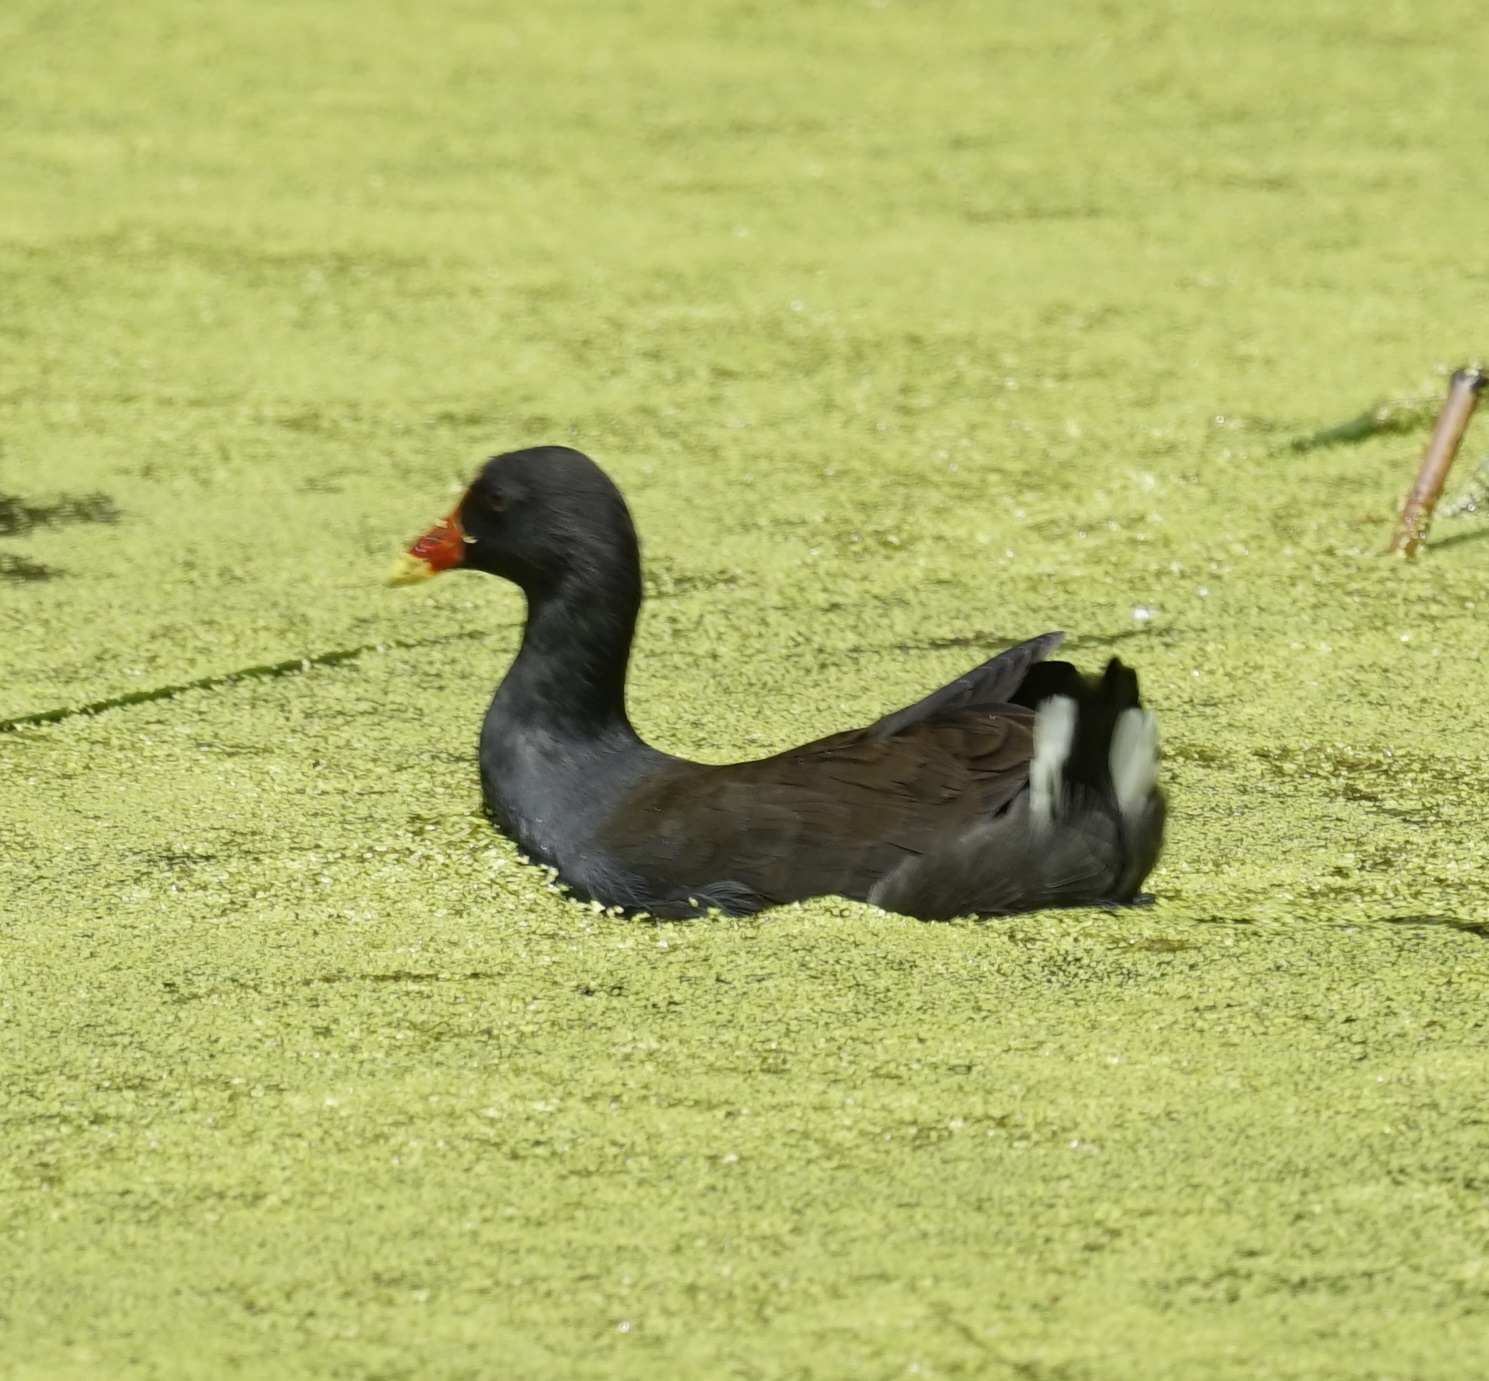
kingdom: Animalia
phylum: Chordata
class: Aves
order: Gruiformes
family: Rallidae
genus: Gallinula
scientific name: Gallinula tenebrosa
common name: Dusky moorhen
